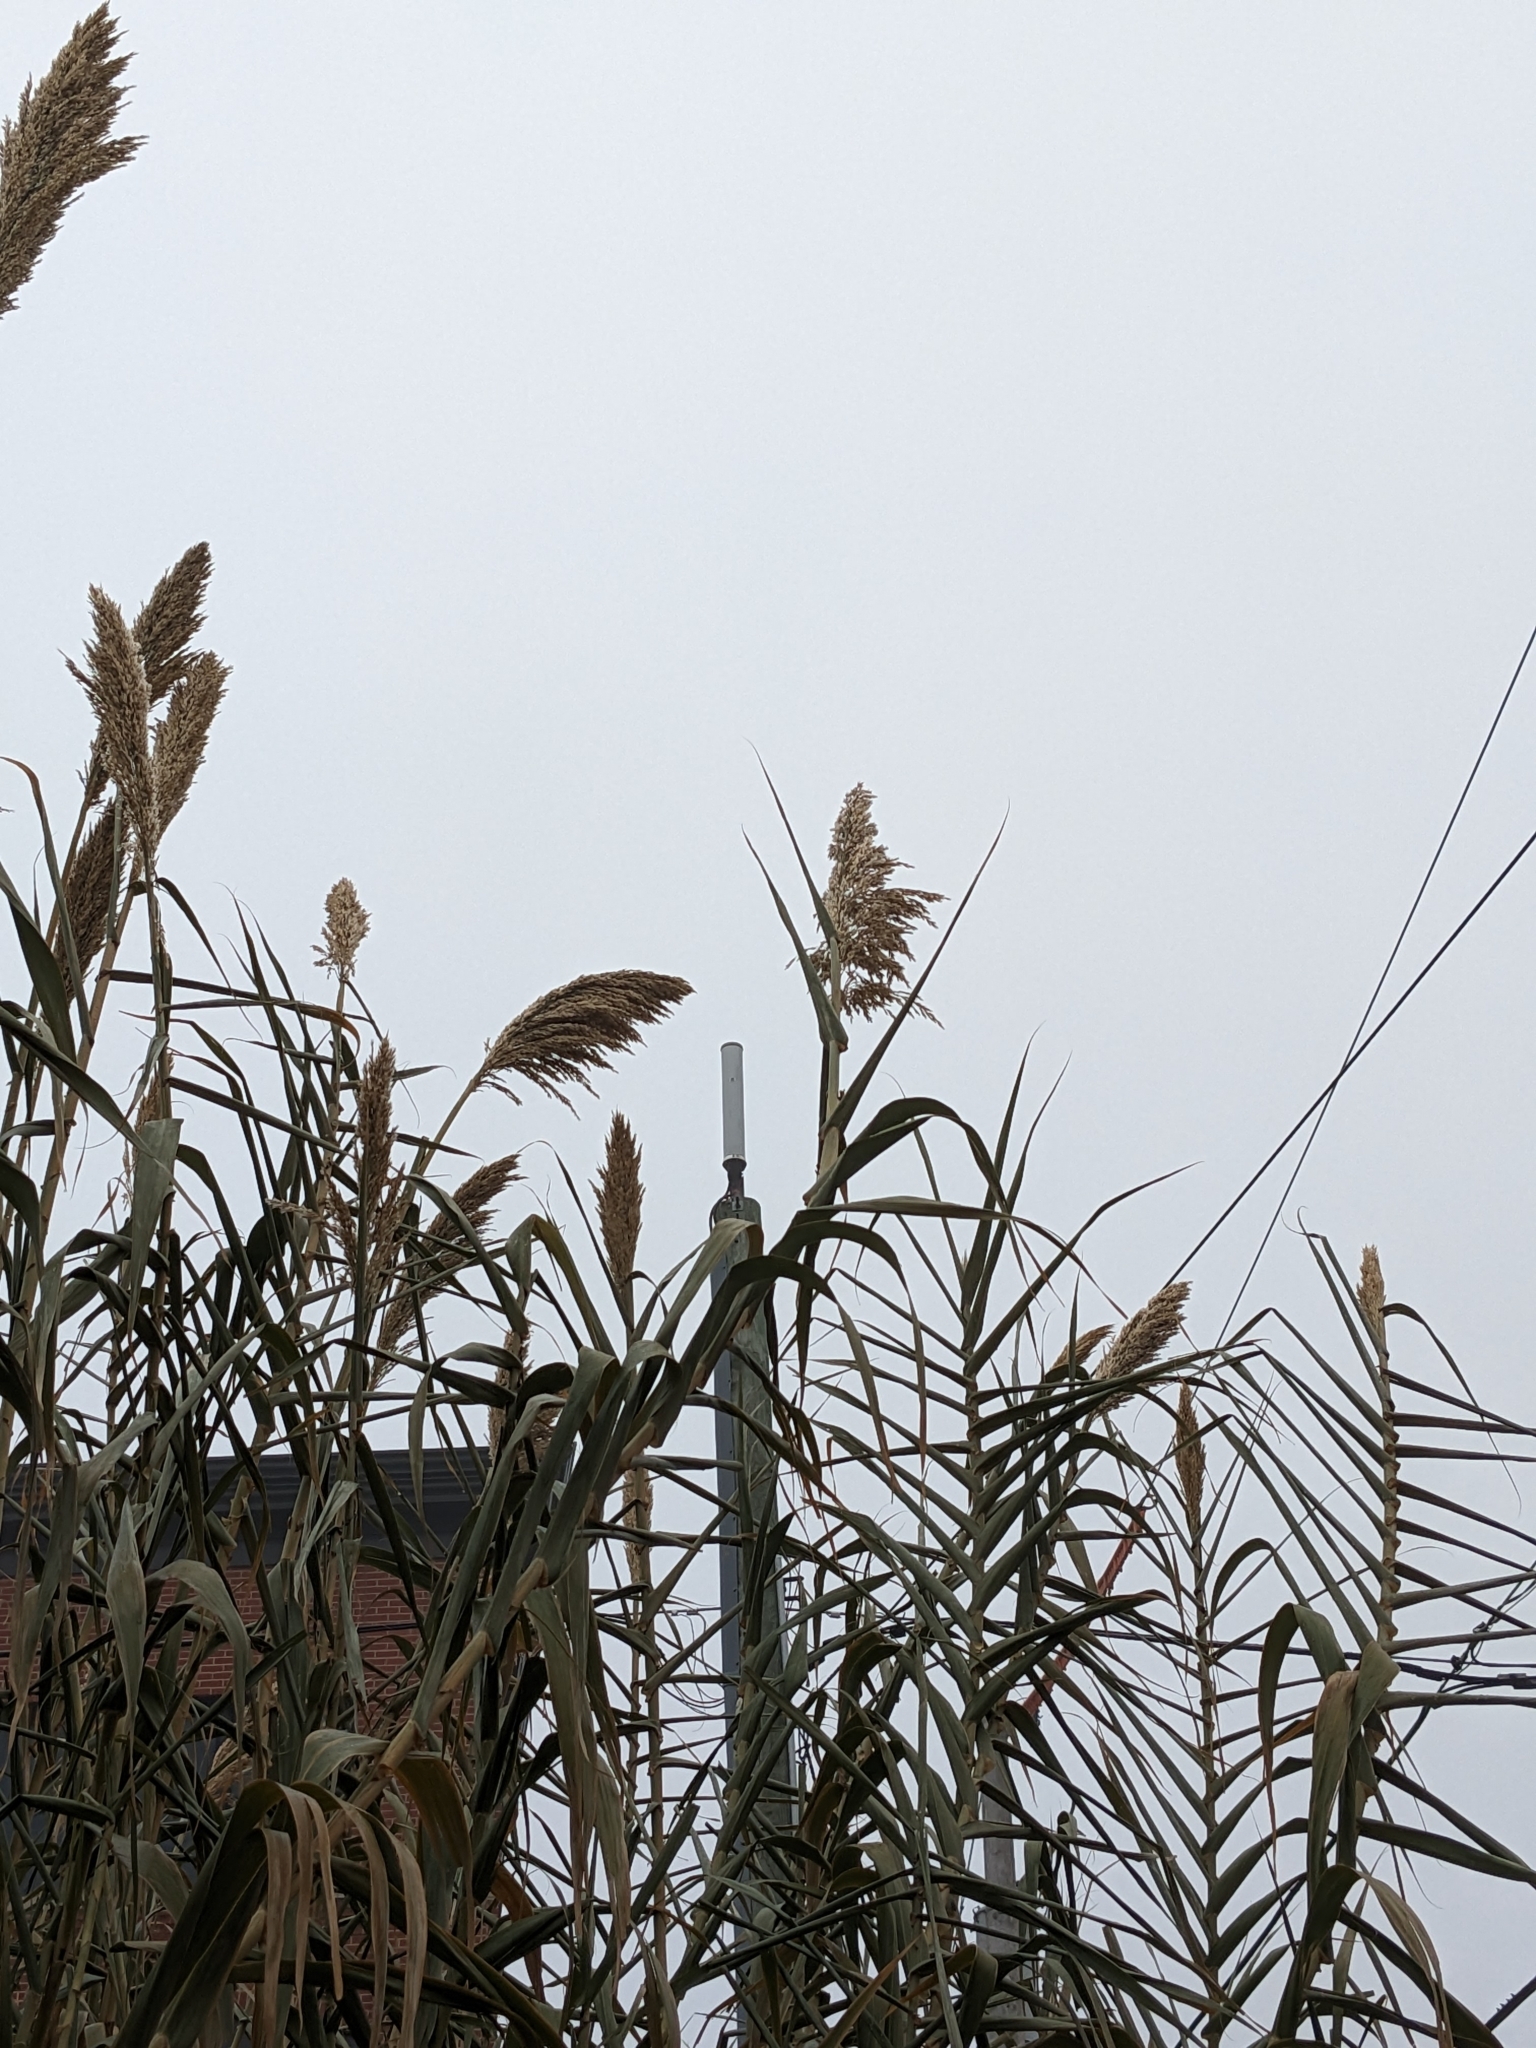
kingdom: Plantae
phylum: Tracheophyta
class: Liliopsida
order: Poales
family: Poaceae
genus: Arundo
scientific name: Arundo donax
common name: Giant reed
